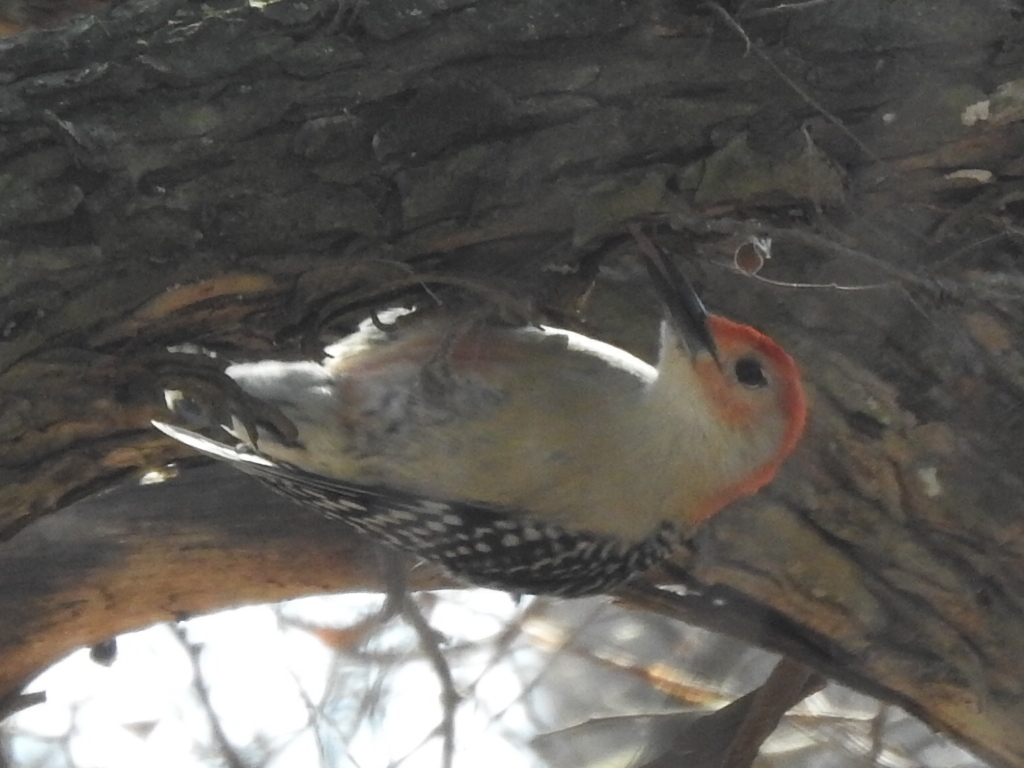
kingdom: Animalia
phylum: Chordata
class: Aves
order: Piciformes
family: Picidae
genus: Melanerpes
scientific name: Melanerpes carolinus
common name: Red-bellied woodpecker
